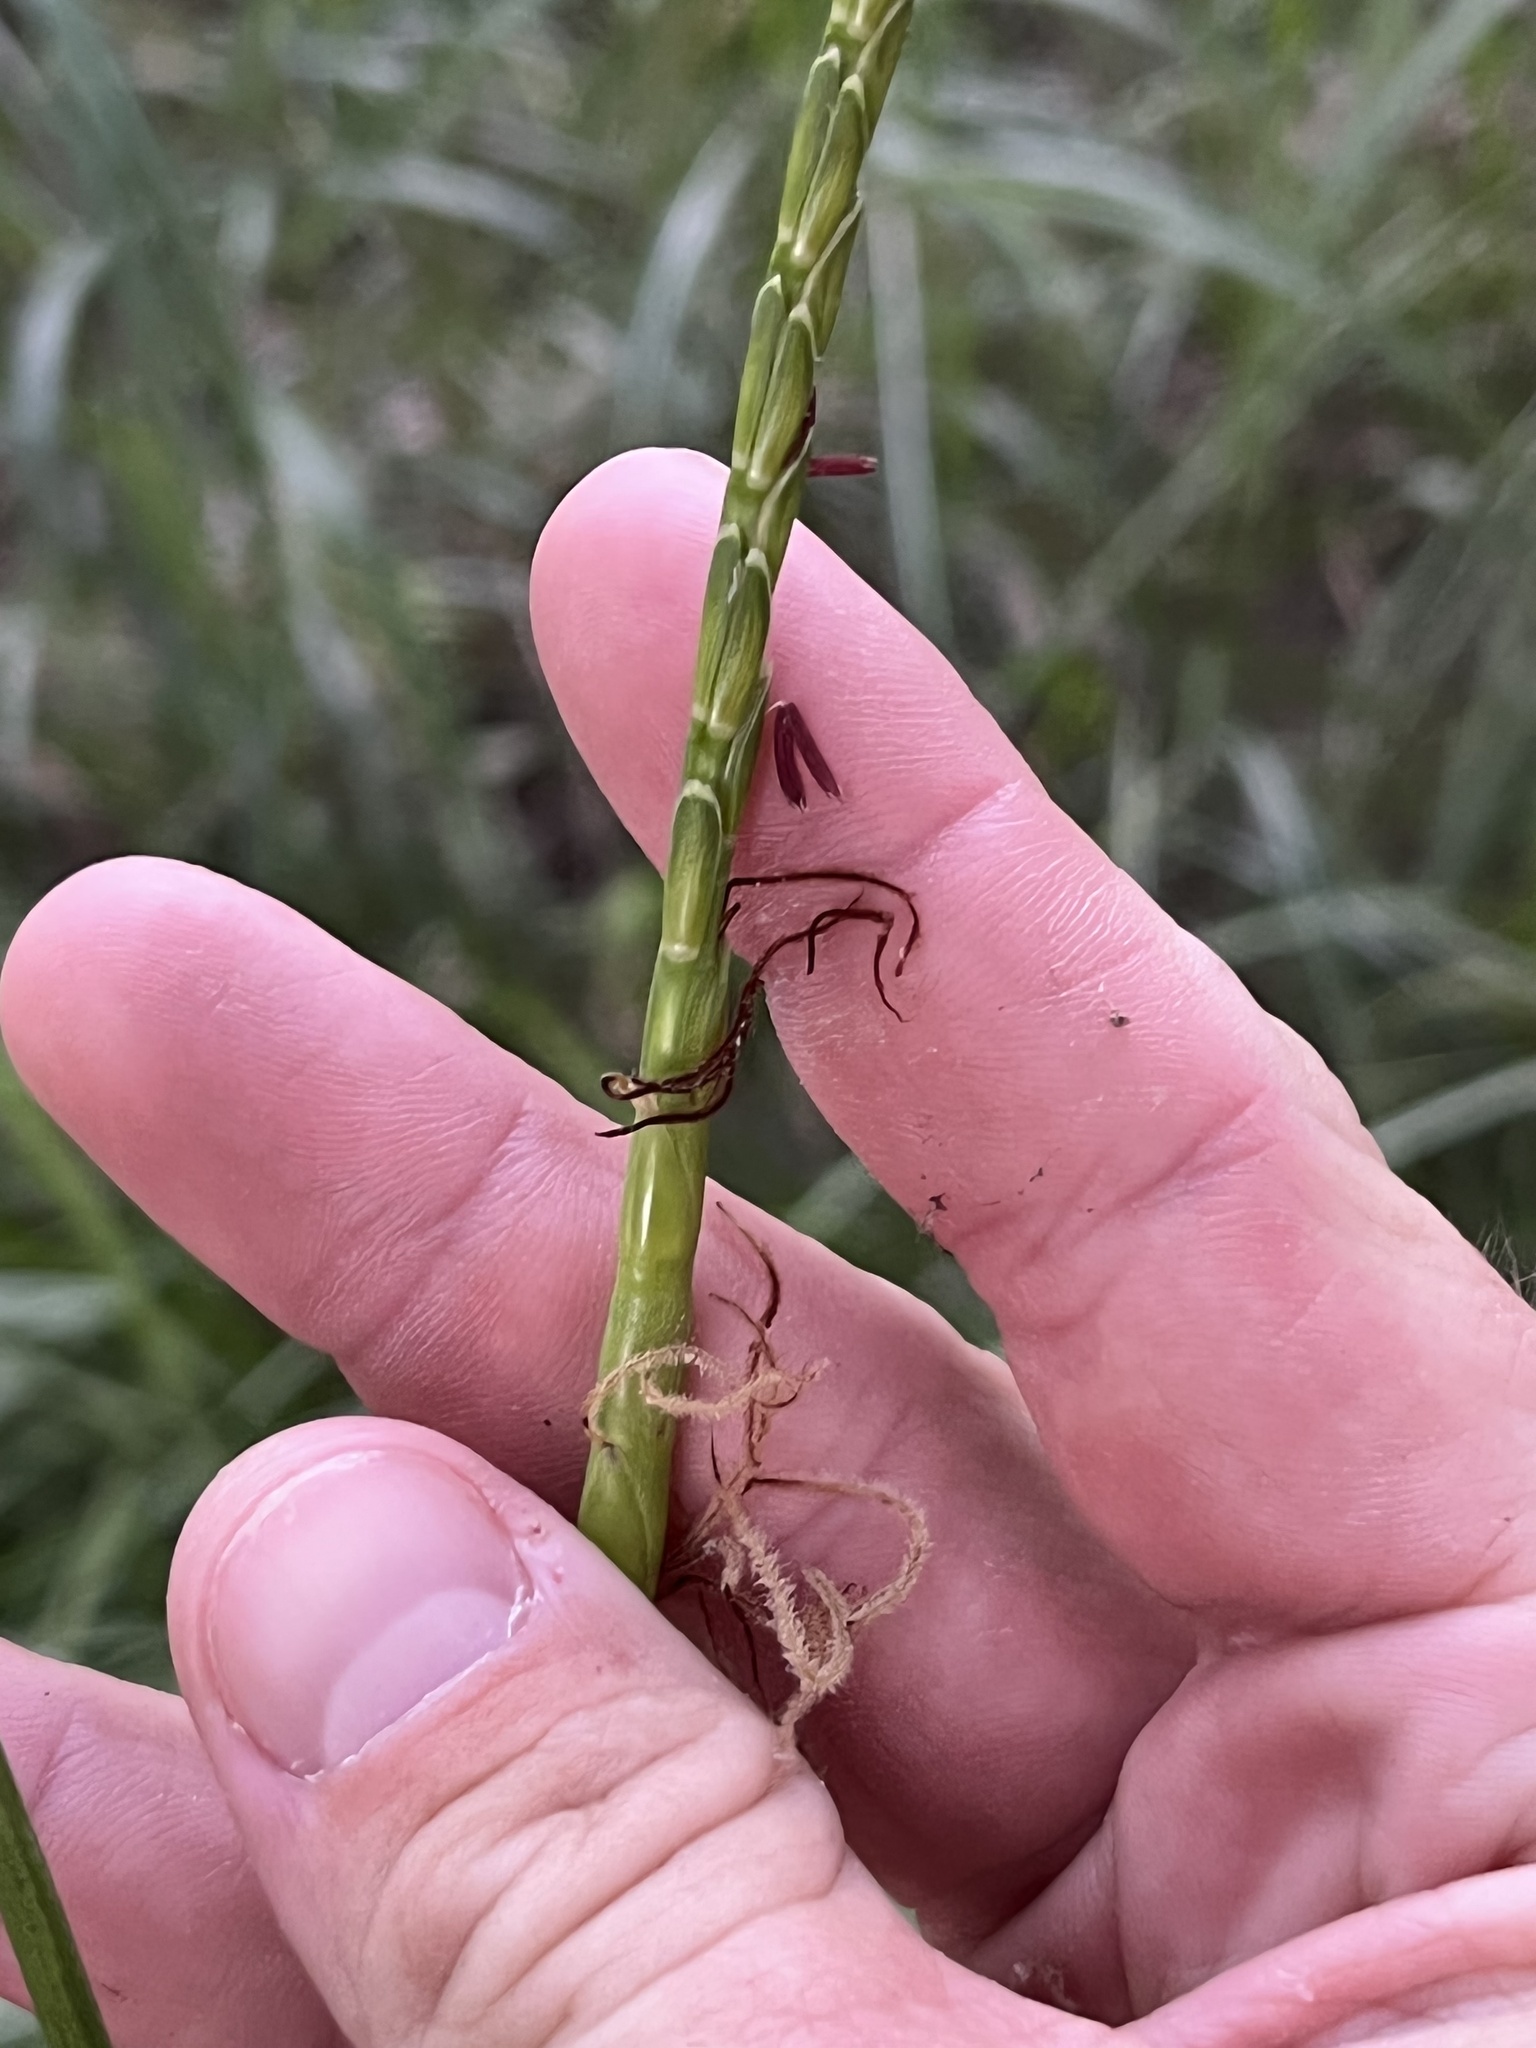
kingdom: Plantae
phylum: Tracheophyta
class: Liliopsida
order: Poales
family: Poaceae
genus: Tripsacum
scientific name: Tripsacum dactyloides
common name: Buffalo-grass
